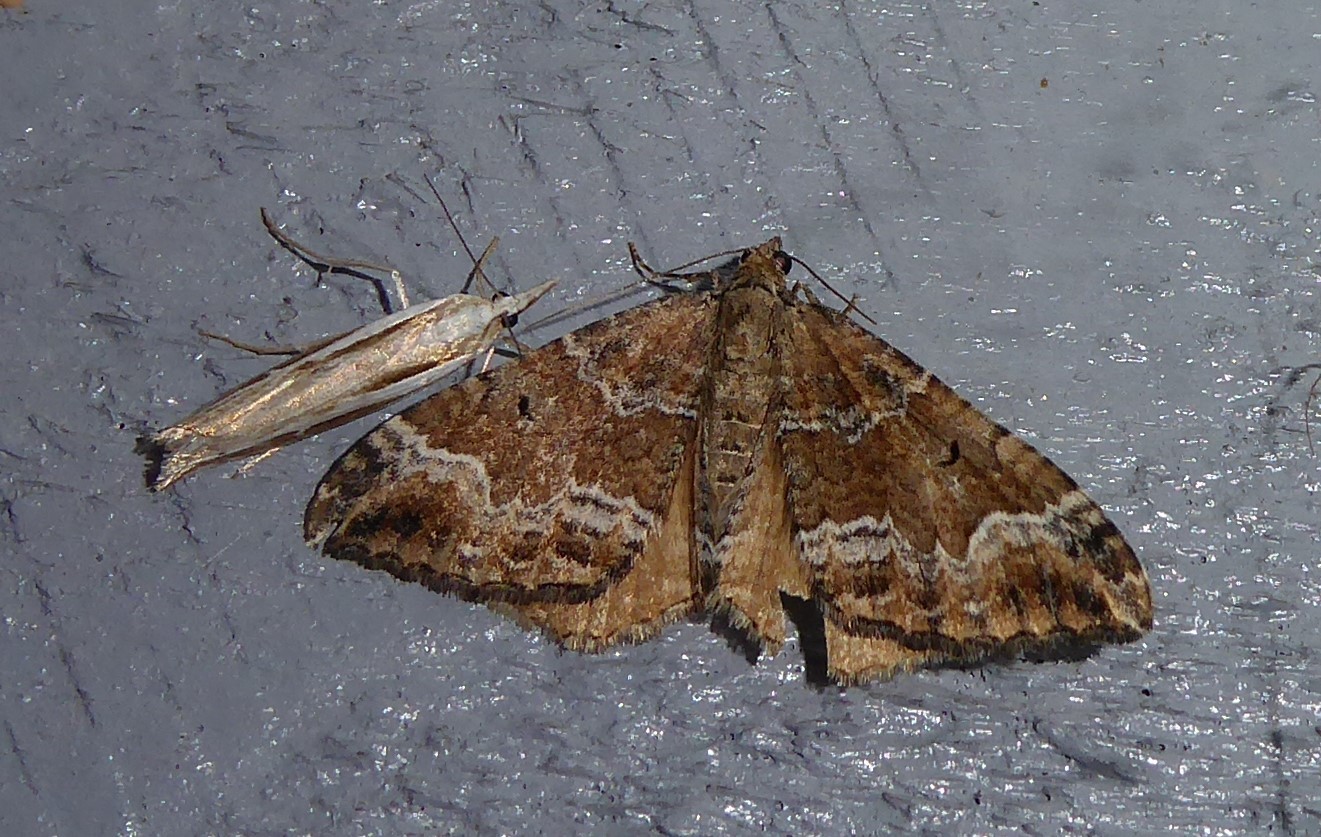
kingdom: Animalia
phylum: Arthropoda
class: Insecta
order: Lepidoptera
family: Geometridae
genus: Hydriomena
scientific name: Hydriomena deltoidata
